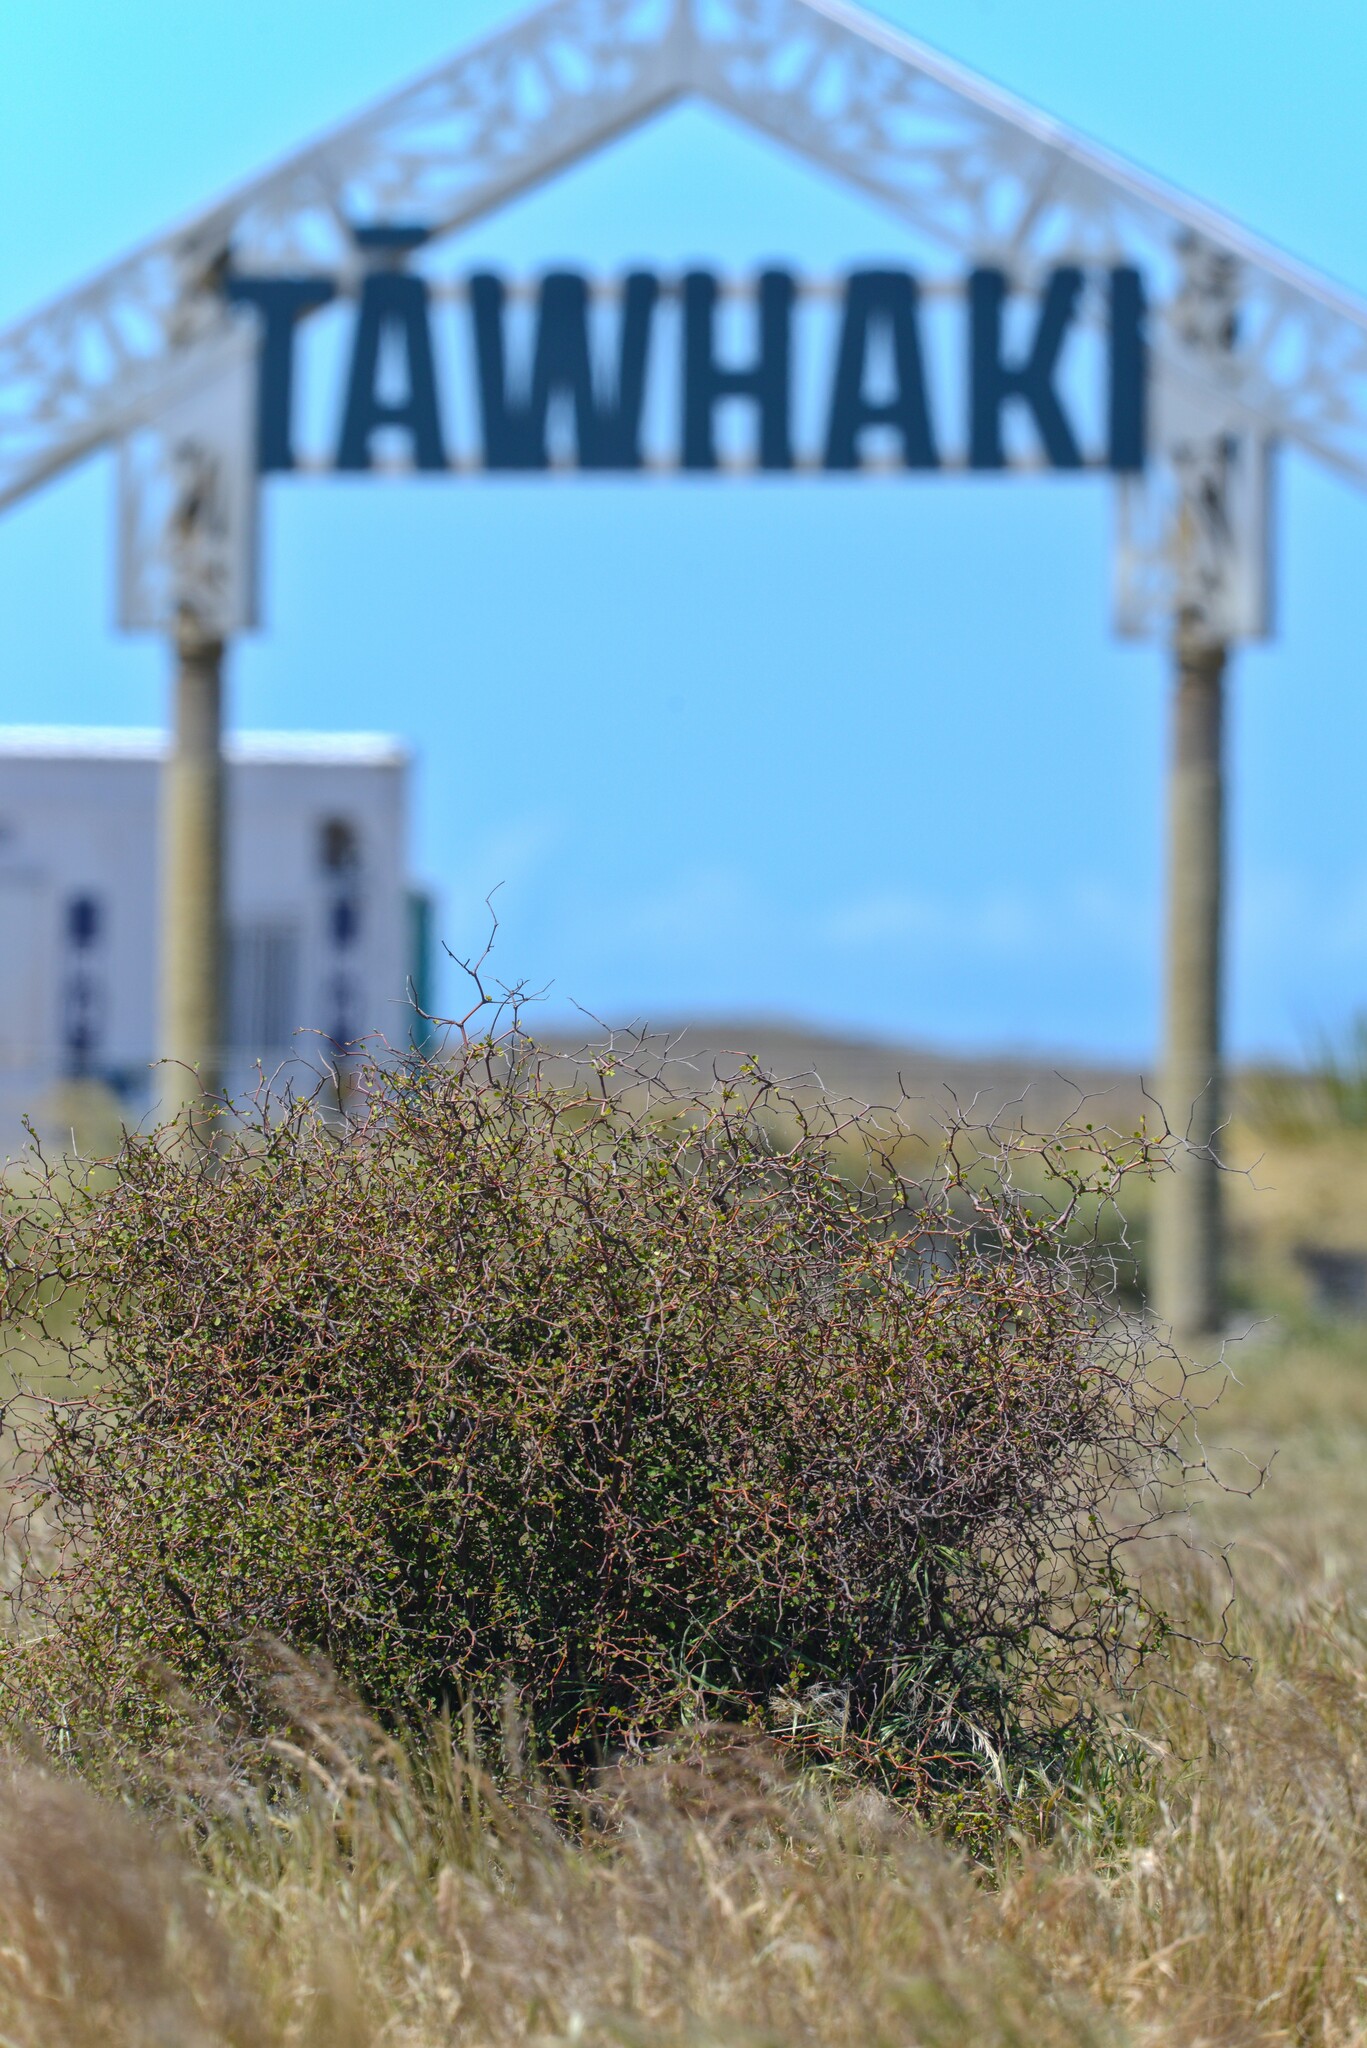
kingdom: Plantae
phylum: Tracheophyta
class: Magnoliopsida
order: Caryophyllales
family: Polygonaceae
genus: Muehlenbeckia
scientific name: Muehlenbeckia astonii
